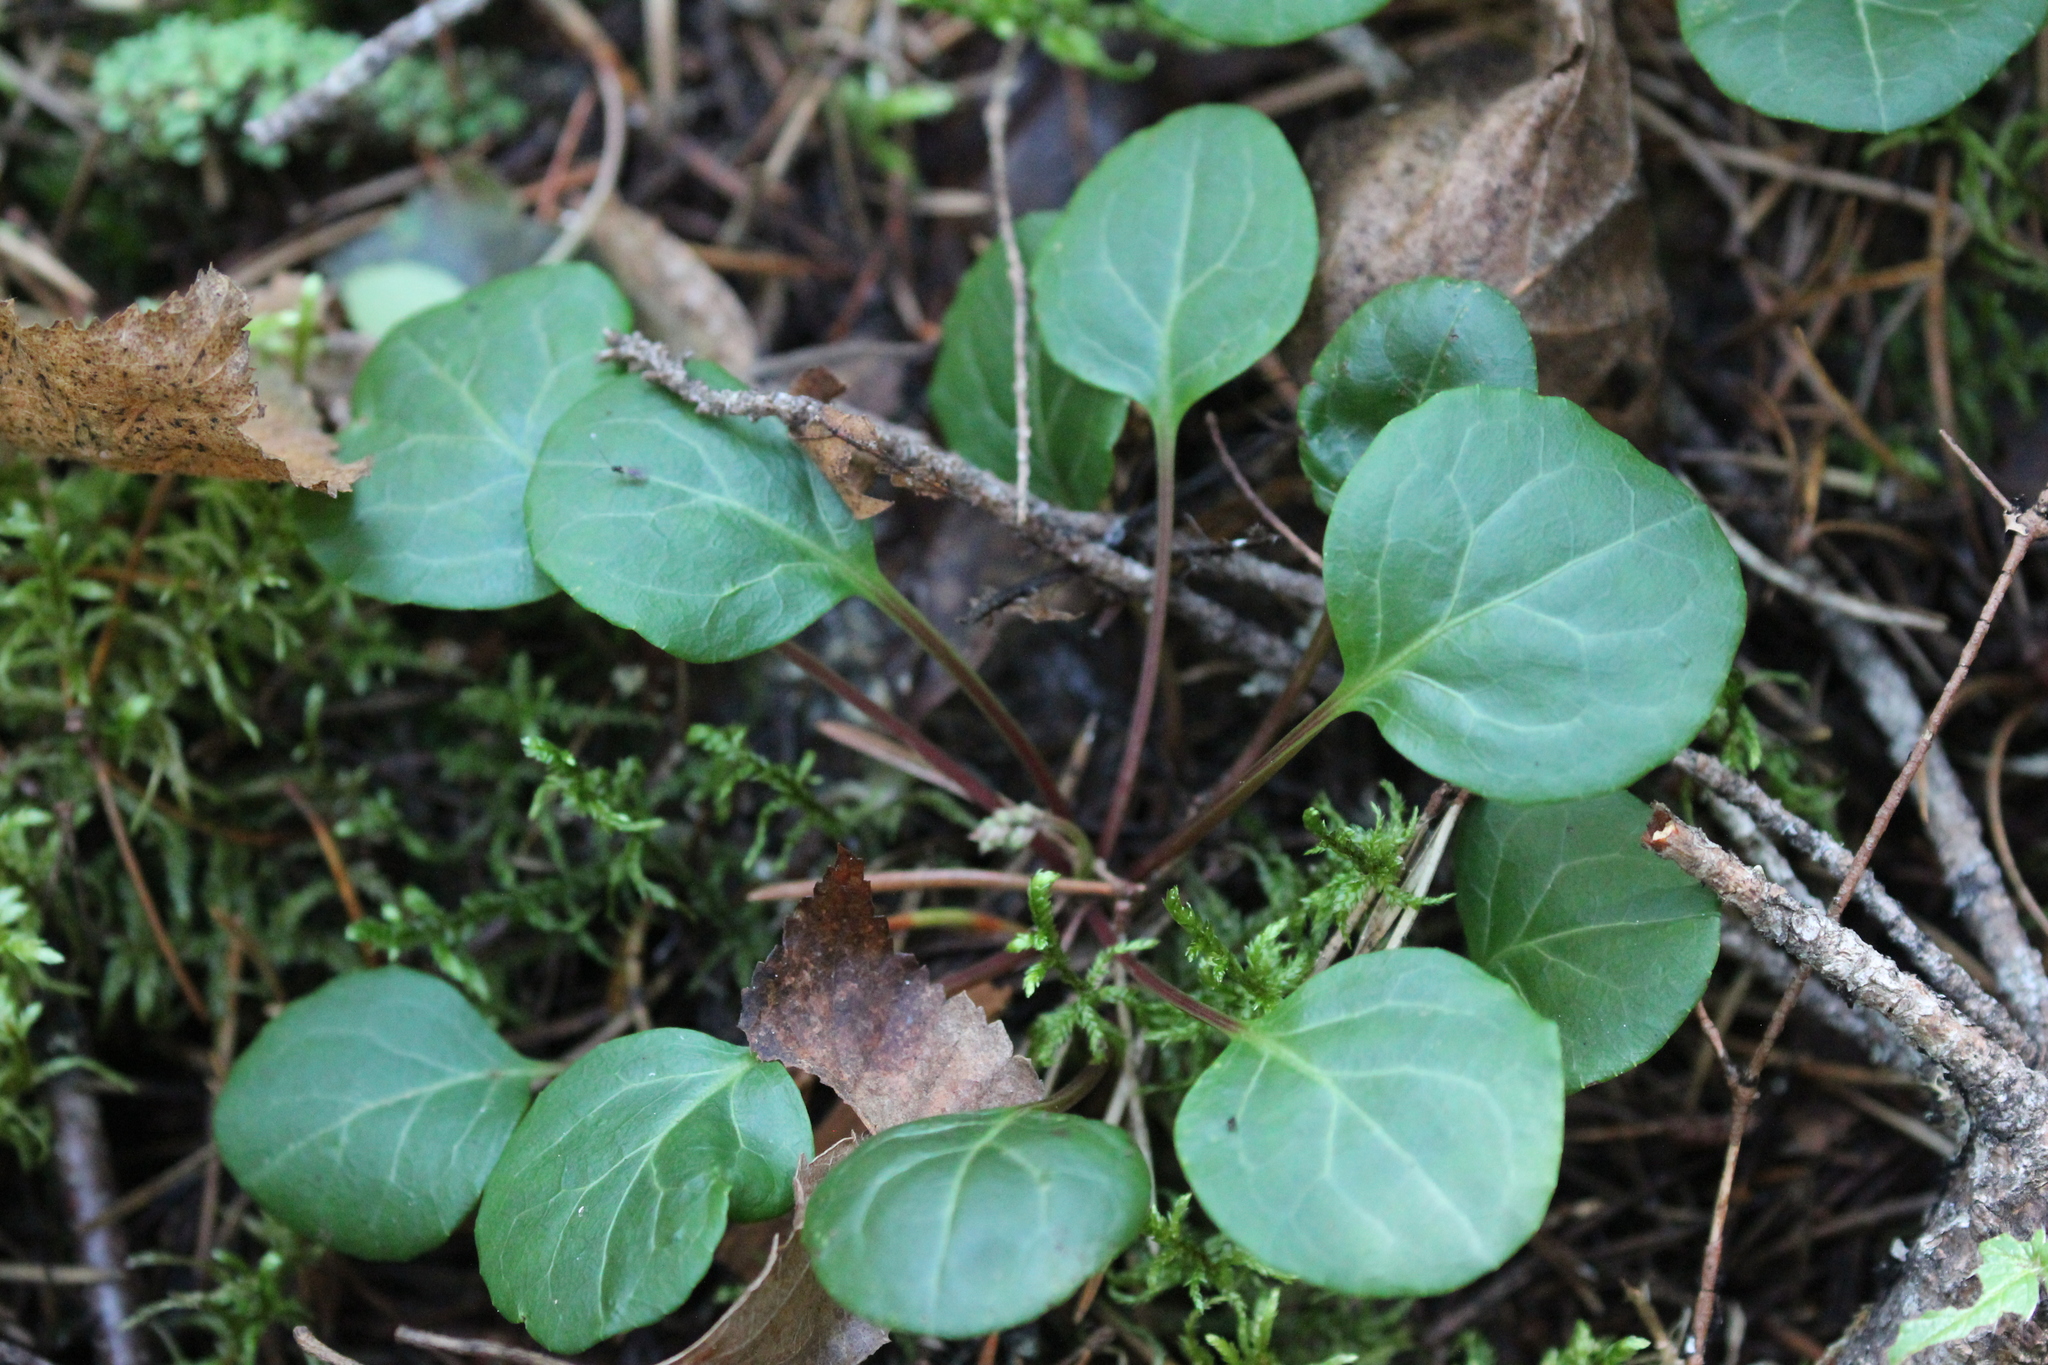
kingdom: Plantae
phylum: Tracheophyta
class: Magnoliopsida
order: Ericales
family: Ericaceae
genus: Pyrola
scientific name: Pyrola chlorantha
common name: Green wintergreen
